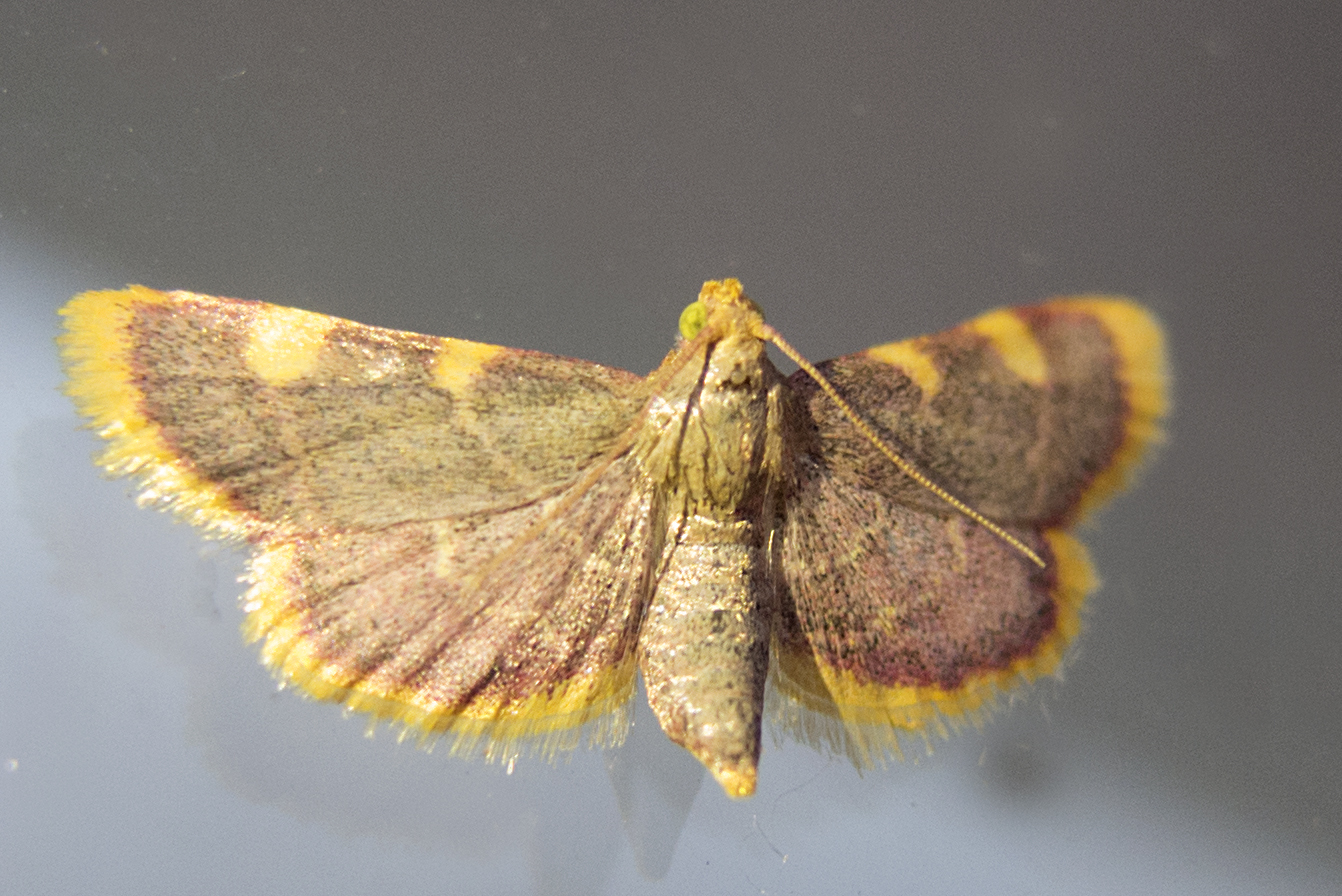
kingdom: Animalia
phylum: Arthropoda
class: Insecta
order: Lepidoptera
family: Pyralidae
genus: Hypsopygia
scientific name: Hypsopygia costalis
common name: Gold triangle
